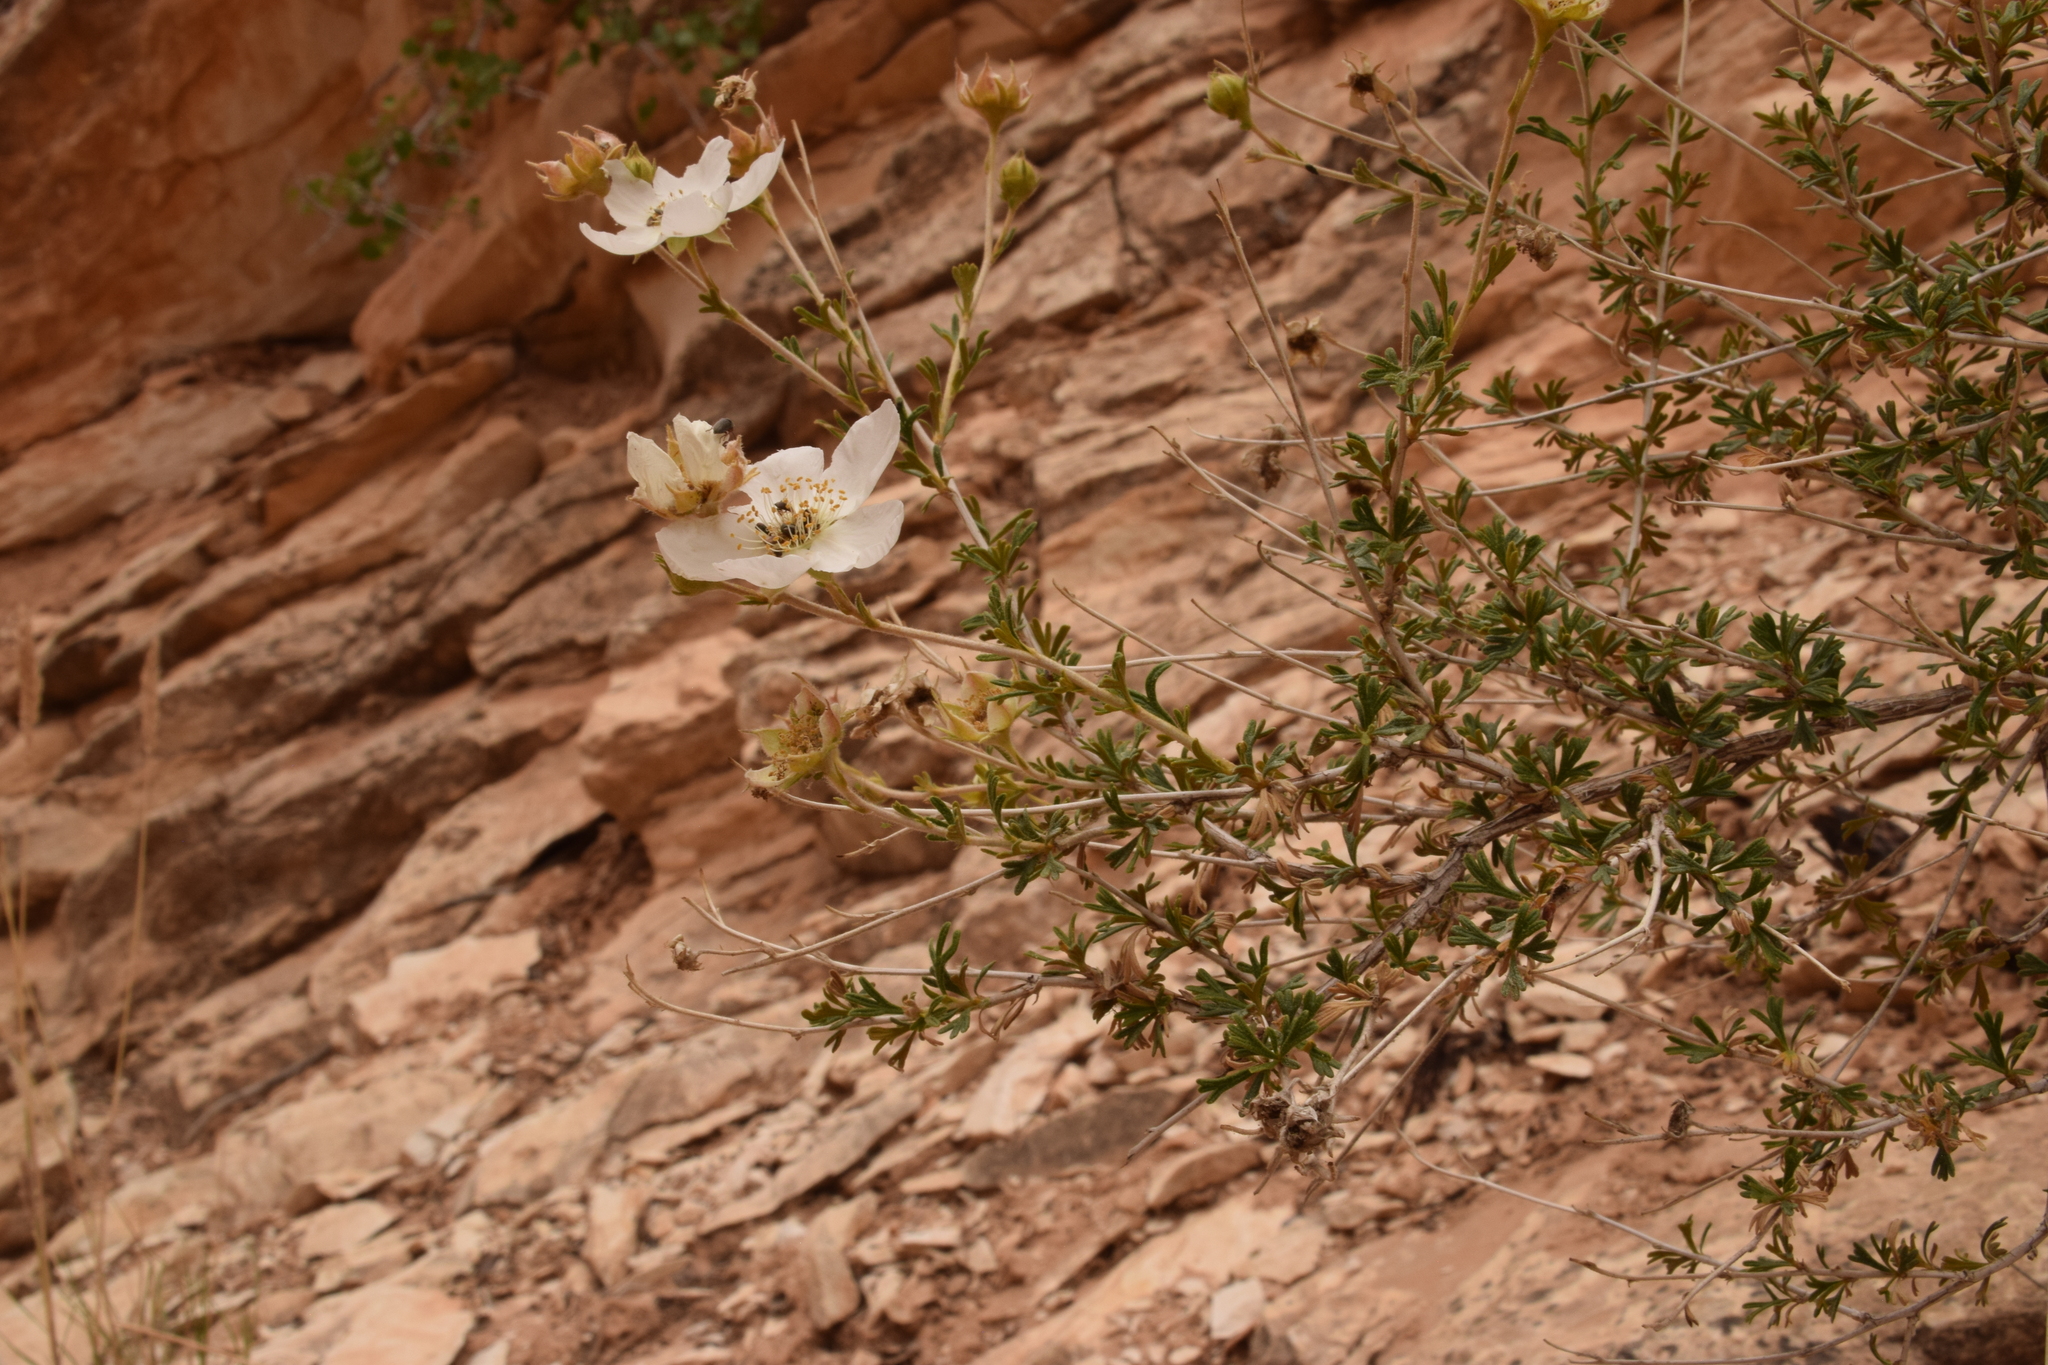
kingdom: Plantae
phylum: Tracheophyta
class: Magnoliopsida
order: Rosales
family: Rosaceae
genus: Fallugia
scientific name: Fallugia paradoxa
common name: Apache-plume
